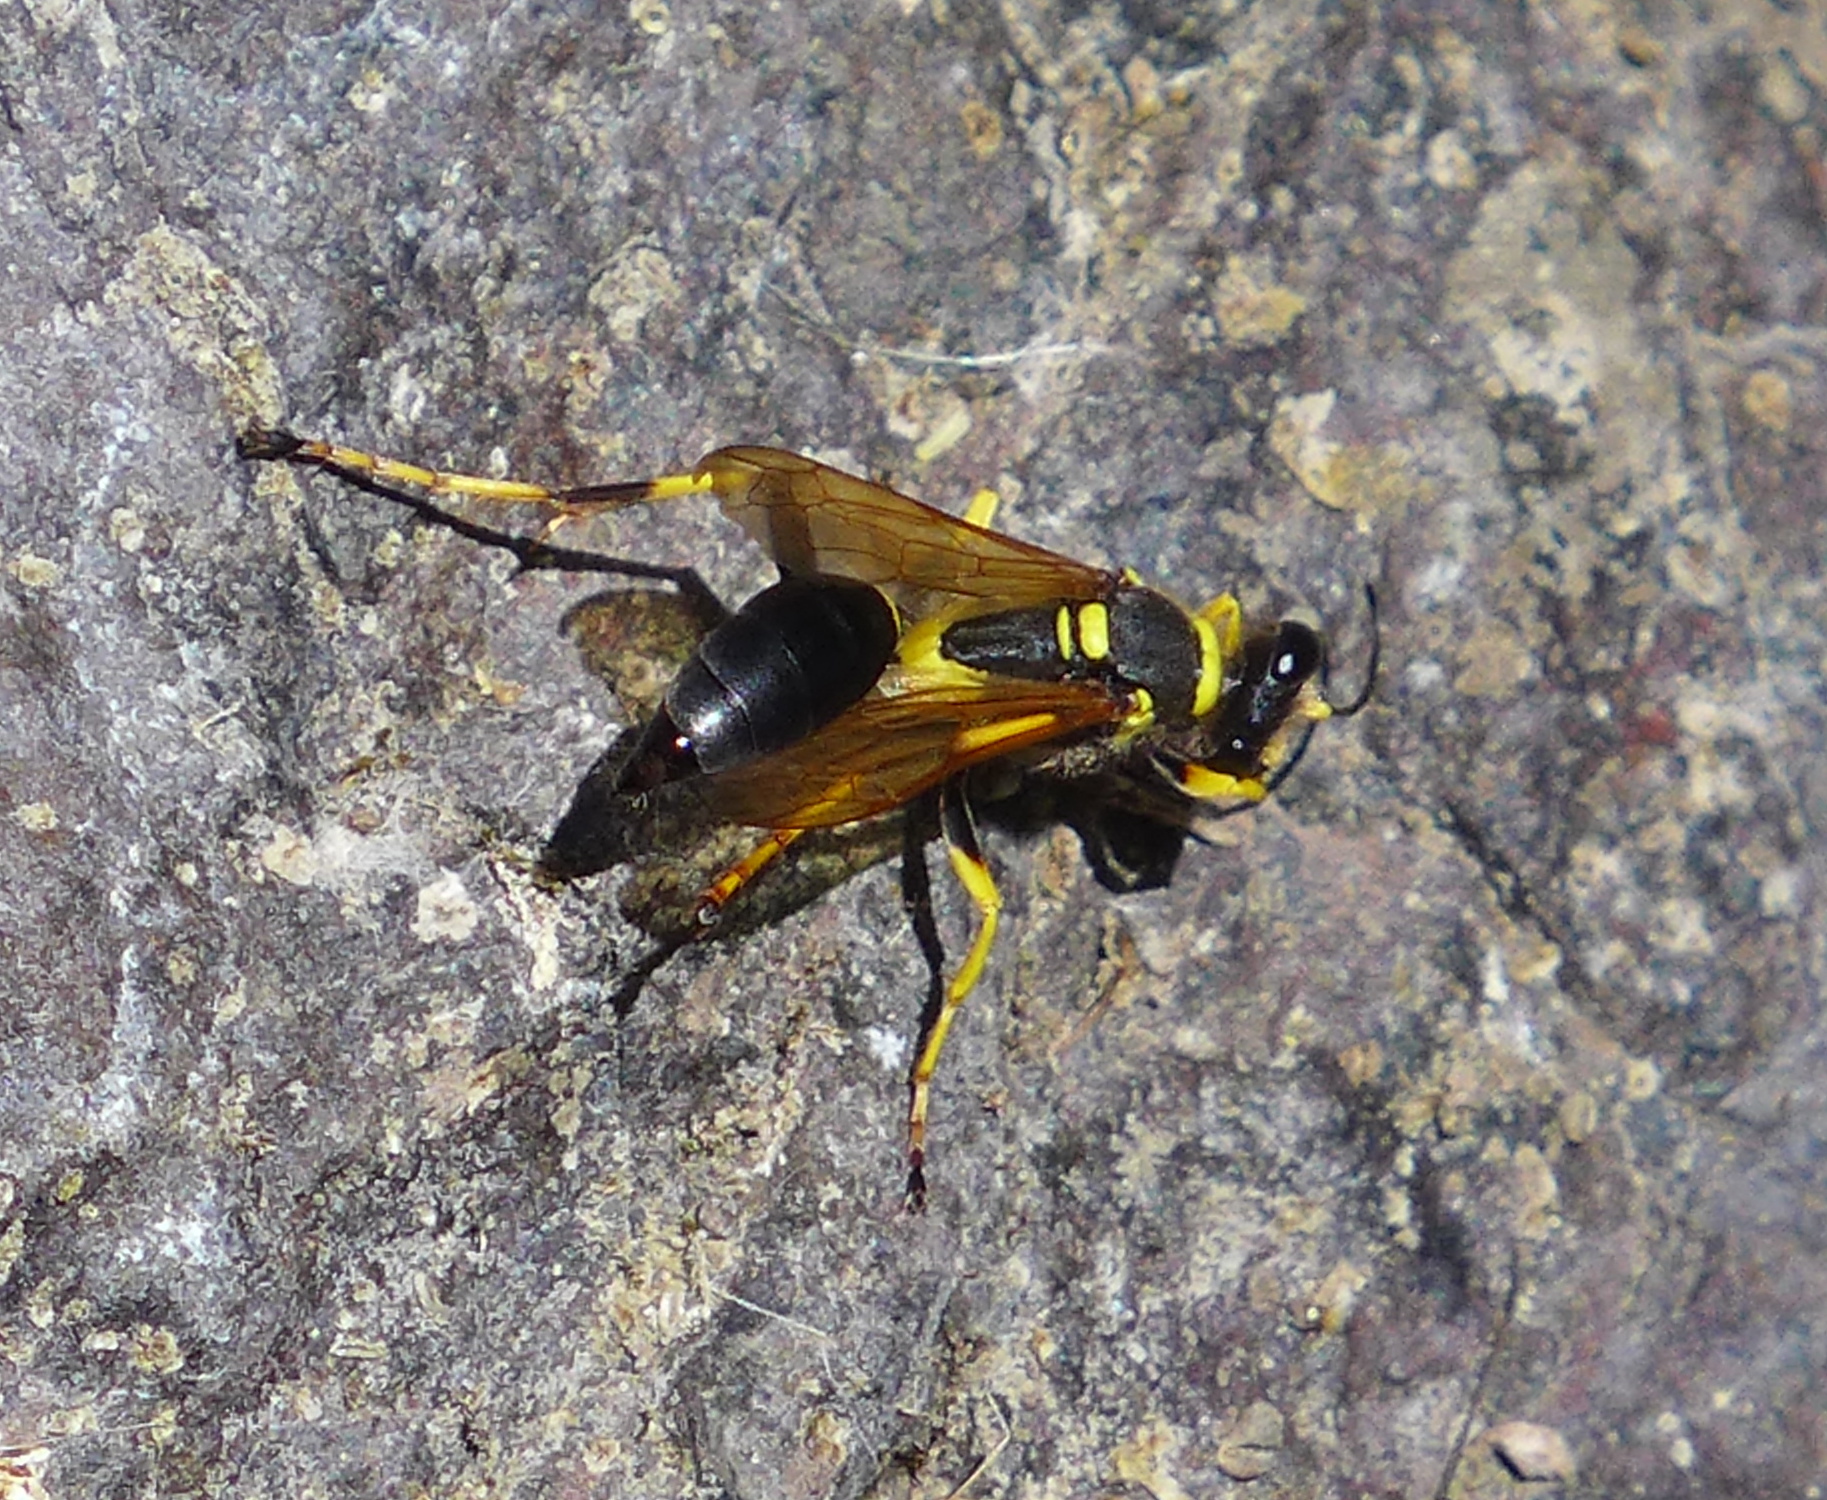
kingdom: Animalia
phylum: Arthropoda
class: Insecta
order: Hymenoptera
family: Sphecidae
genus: Sceliphron
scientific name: Sceliphron caementarium
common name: Mud dauber
